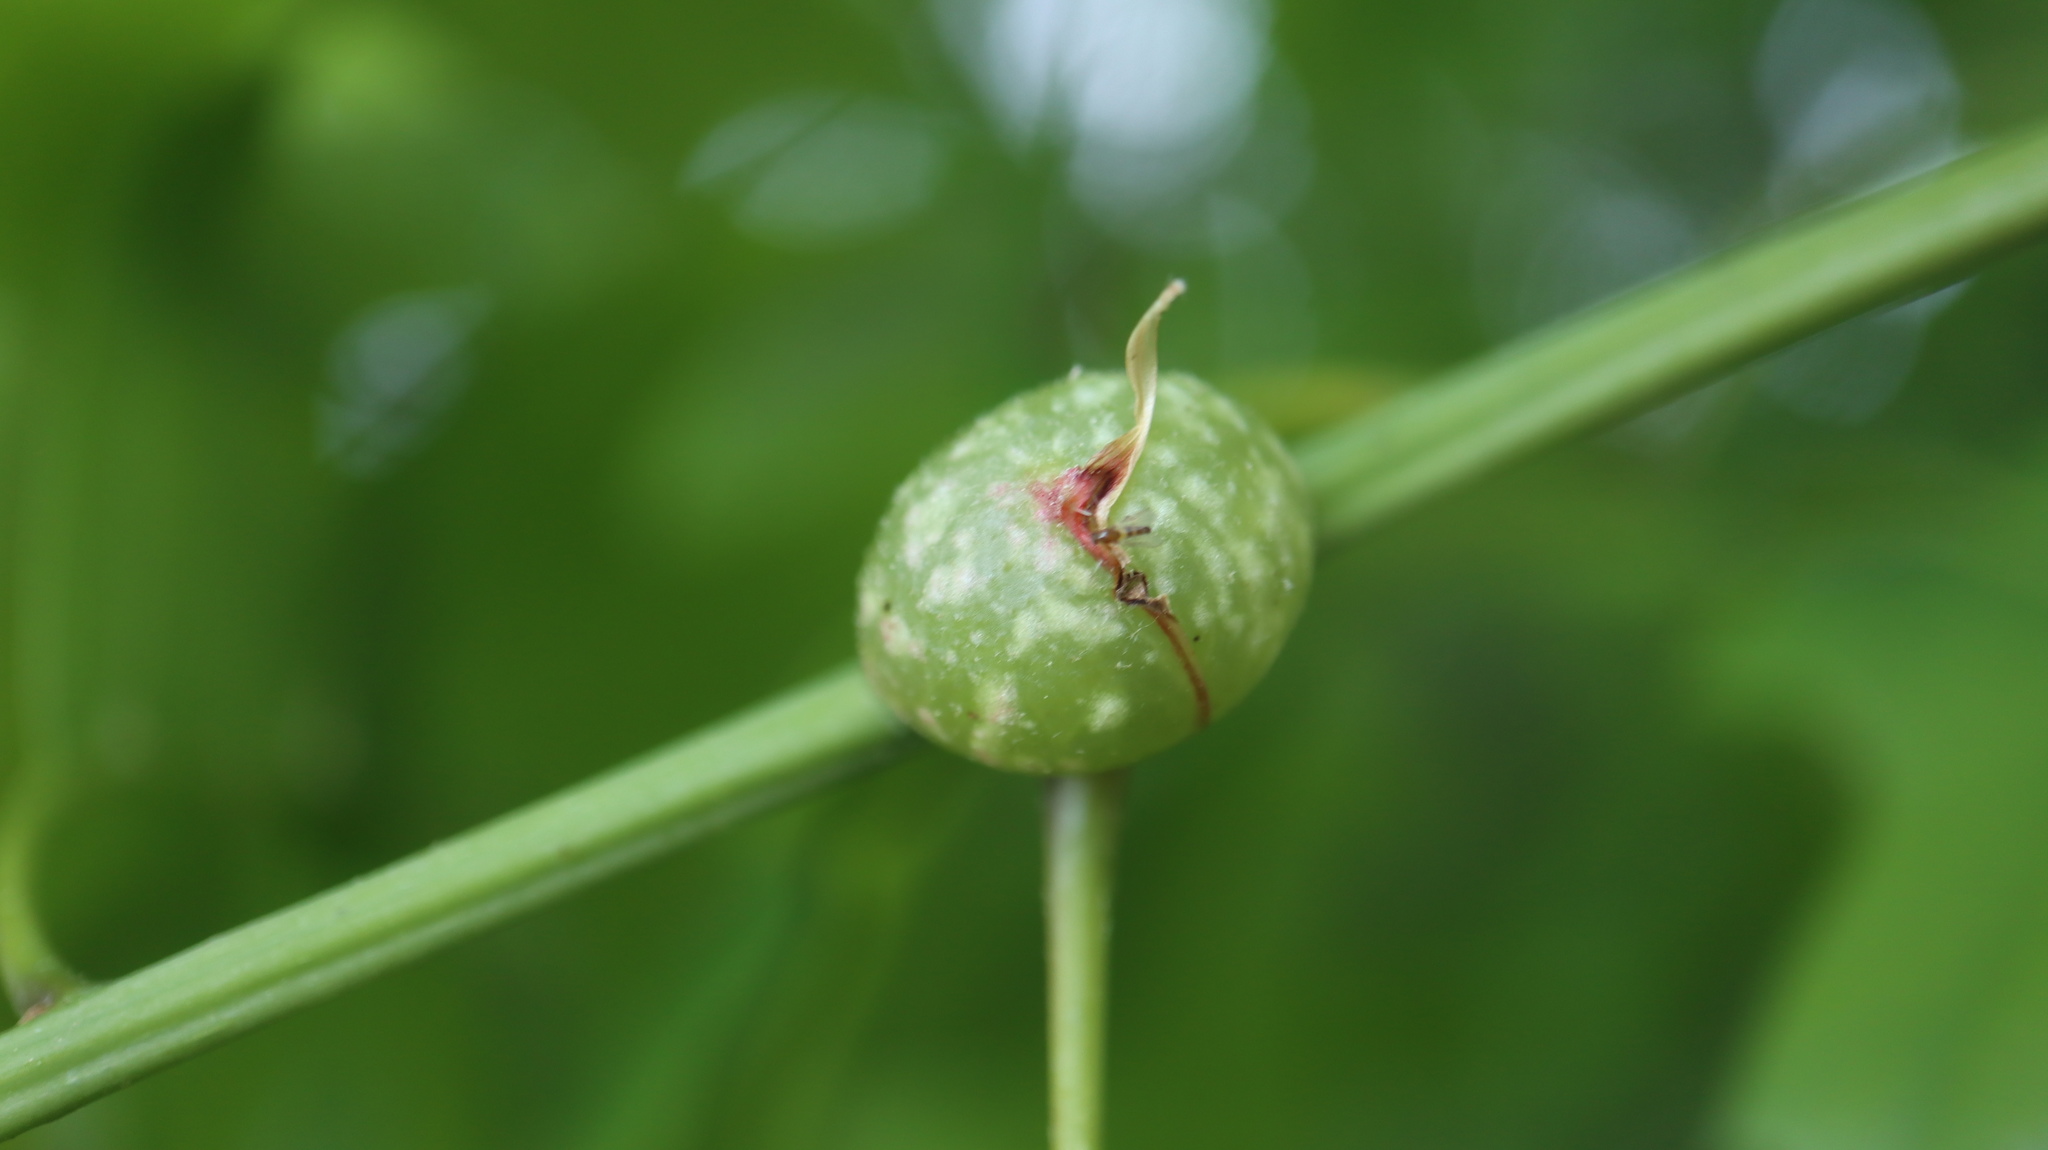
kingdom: Animalia
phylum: Arthropoda
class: Insecta
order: Hymenoptera
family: Cynipidae
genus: Dryocosmus
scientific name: Dryocosmus quercuspalustris
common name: Succulent oak gall wasp
